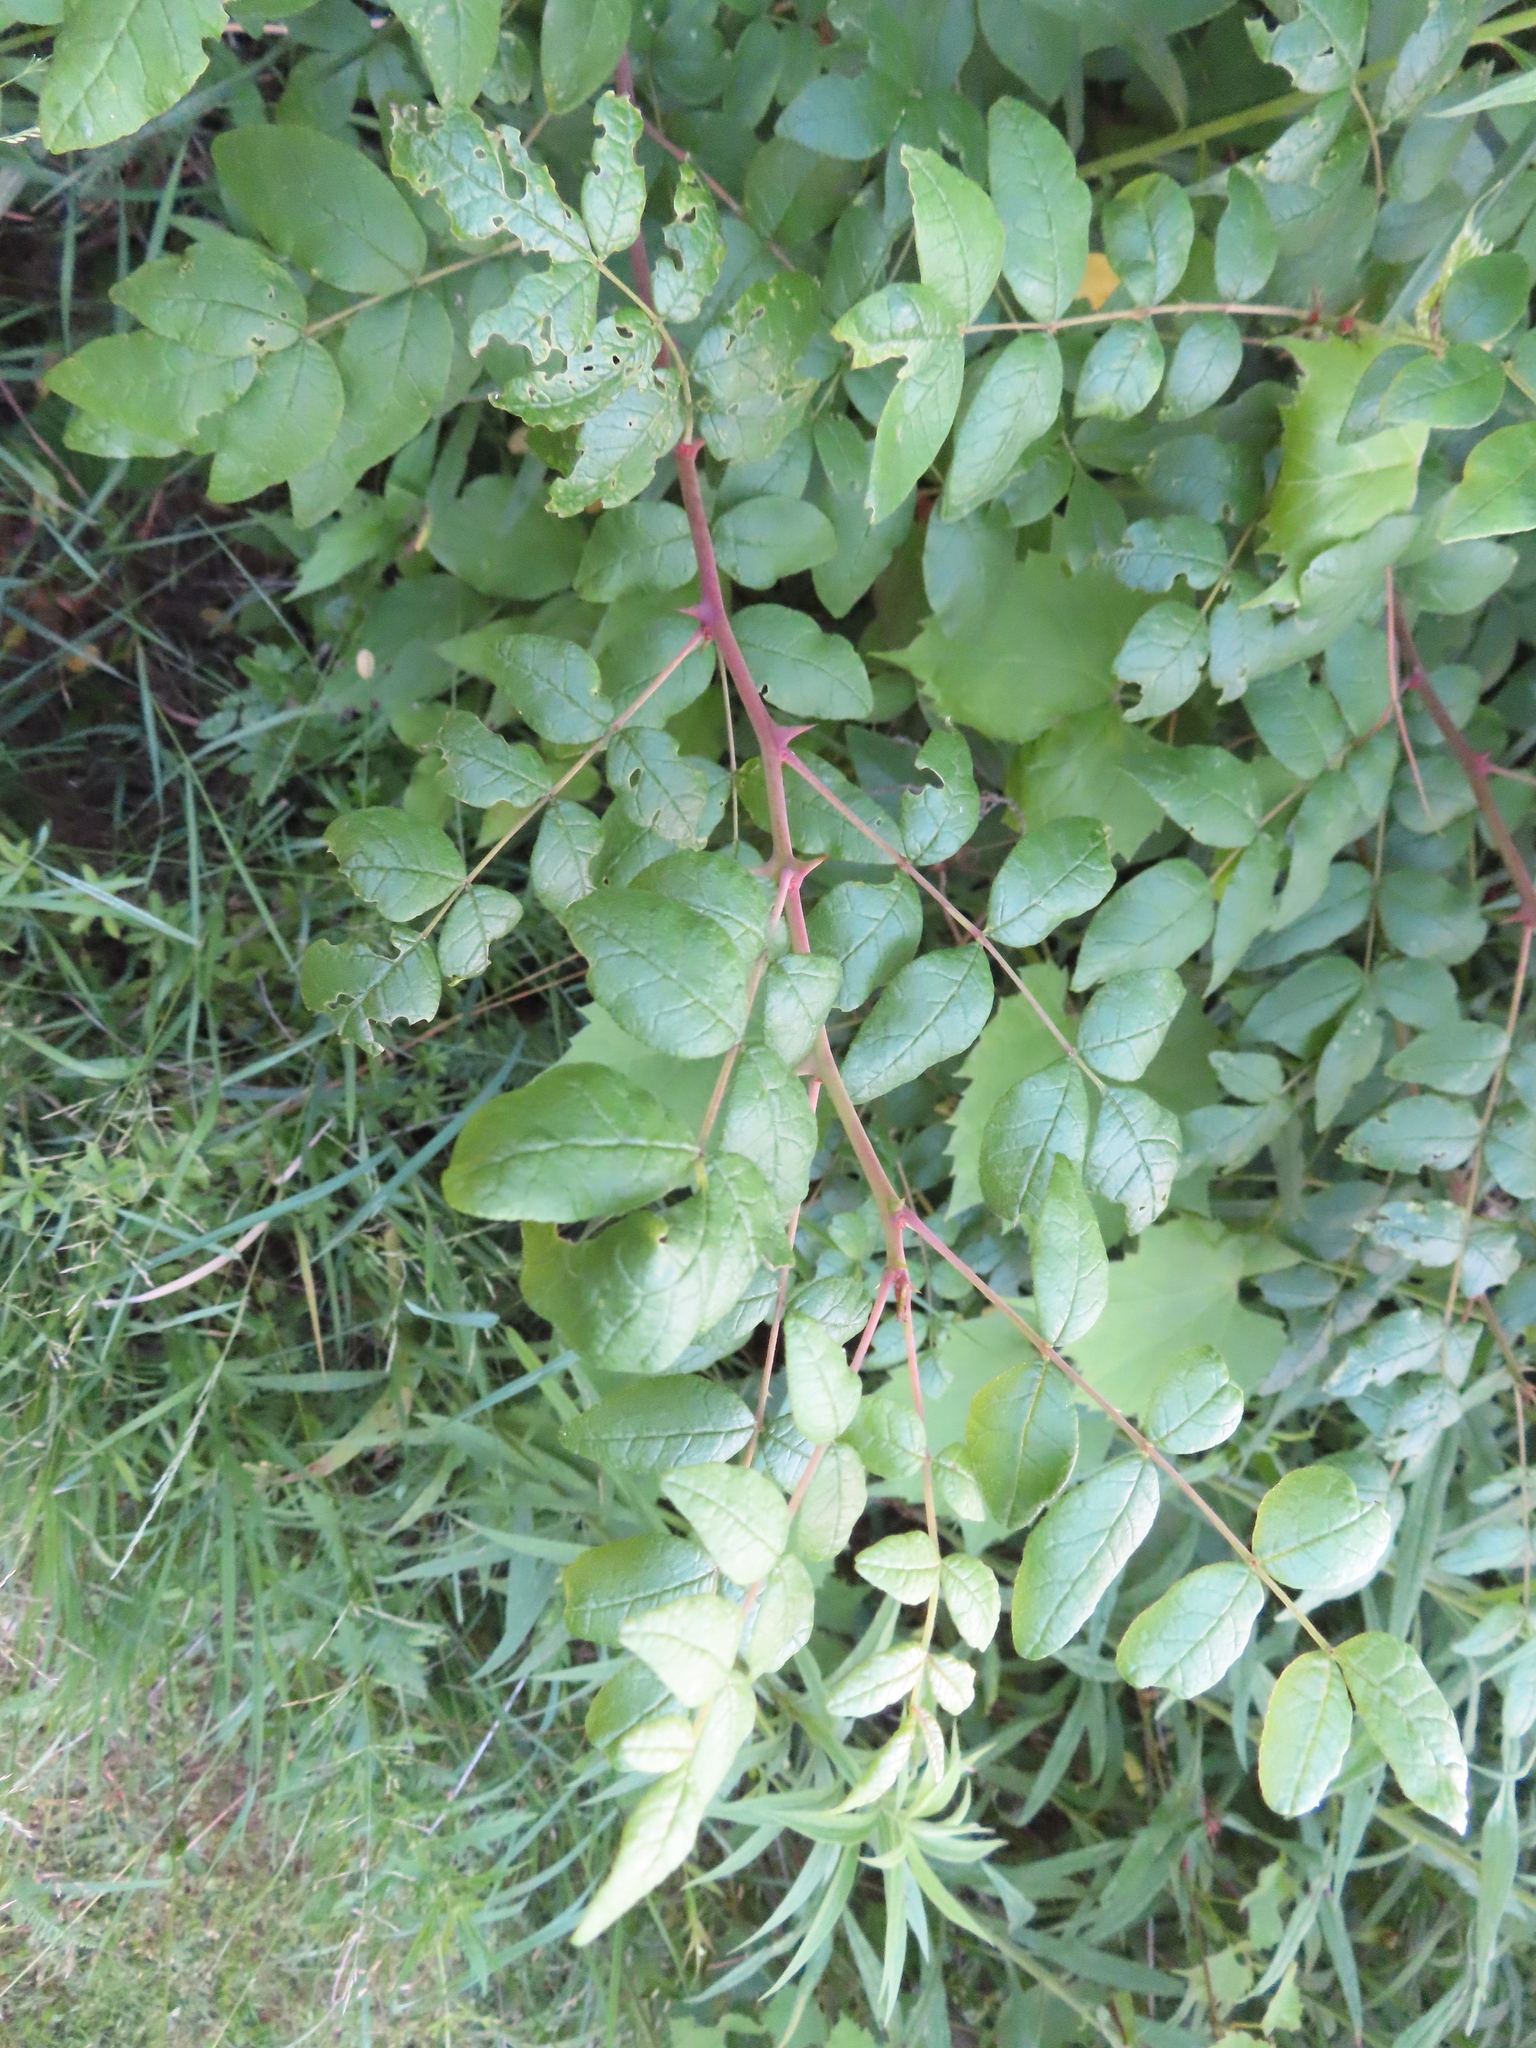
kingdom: Plantae
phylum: Tracheophyta
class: Magnoliopsida
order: Sapindales
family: Rutaceae
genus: Zanthoxylum
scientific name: Zanthoxylum americanum
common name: Northern prickly-ash
